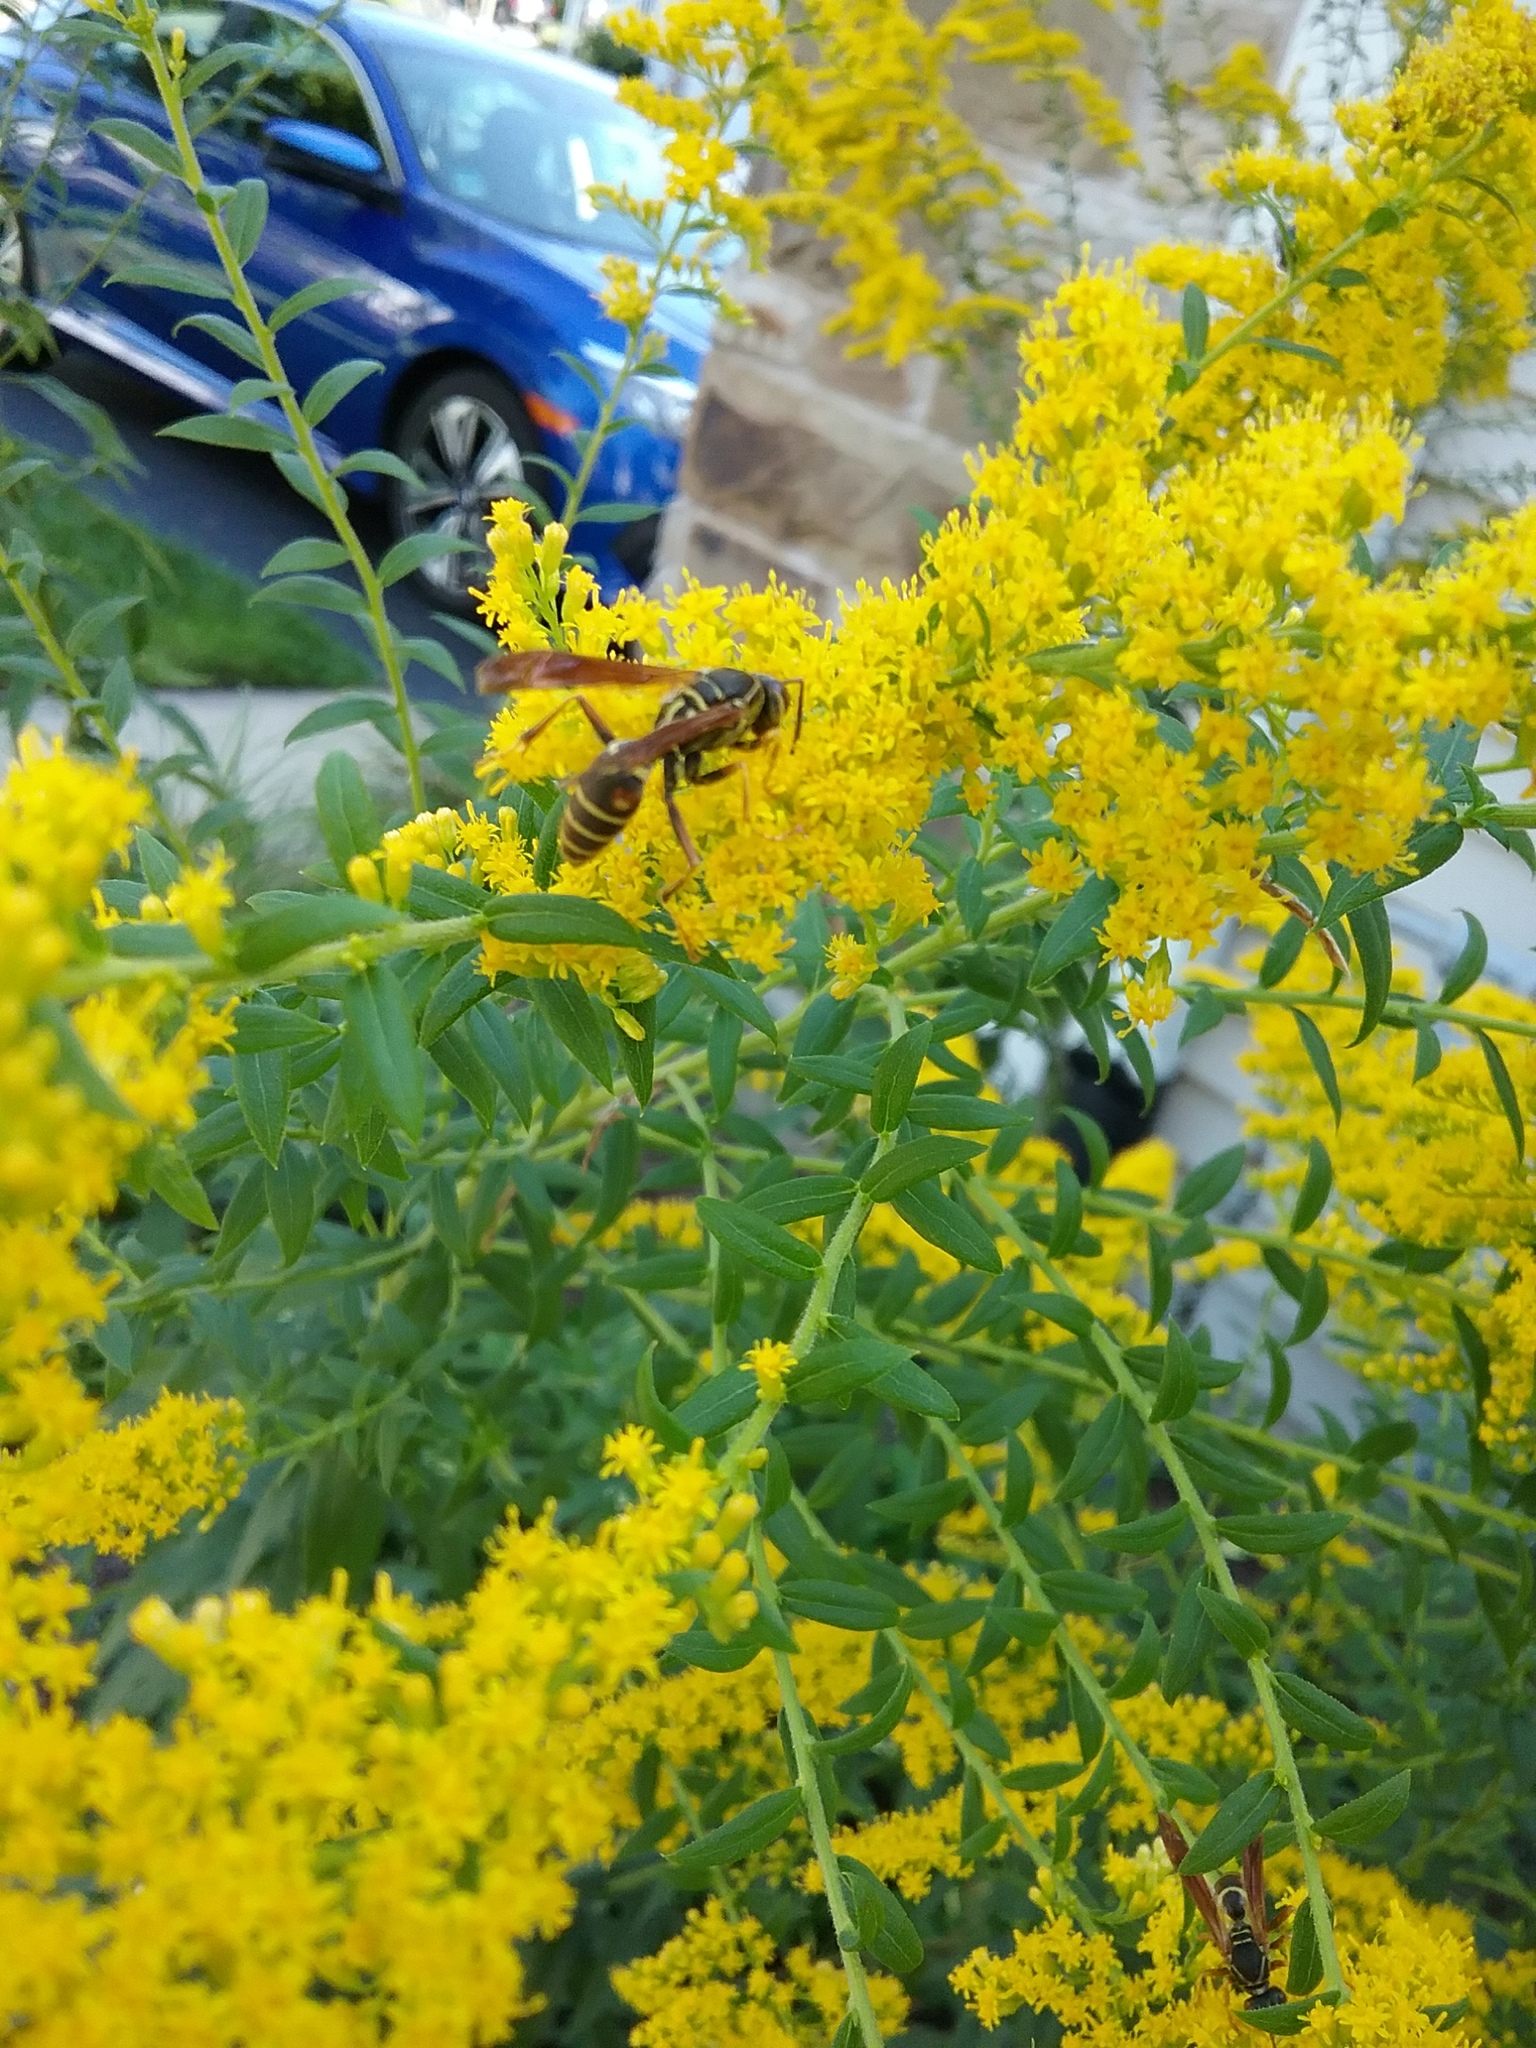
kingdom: Animalia
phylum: Arthropoda
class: Insecta
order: Hymenoptera
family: Eumenidae
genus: Polistes
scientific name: Polistes fuscatus
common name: Dark paper wasp
